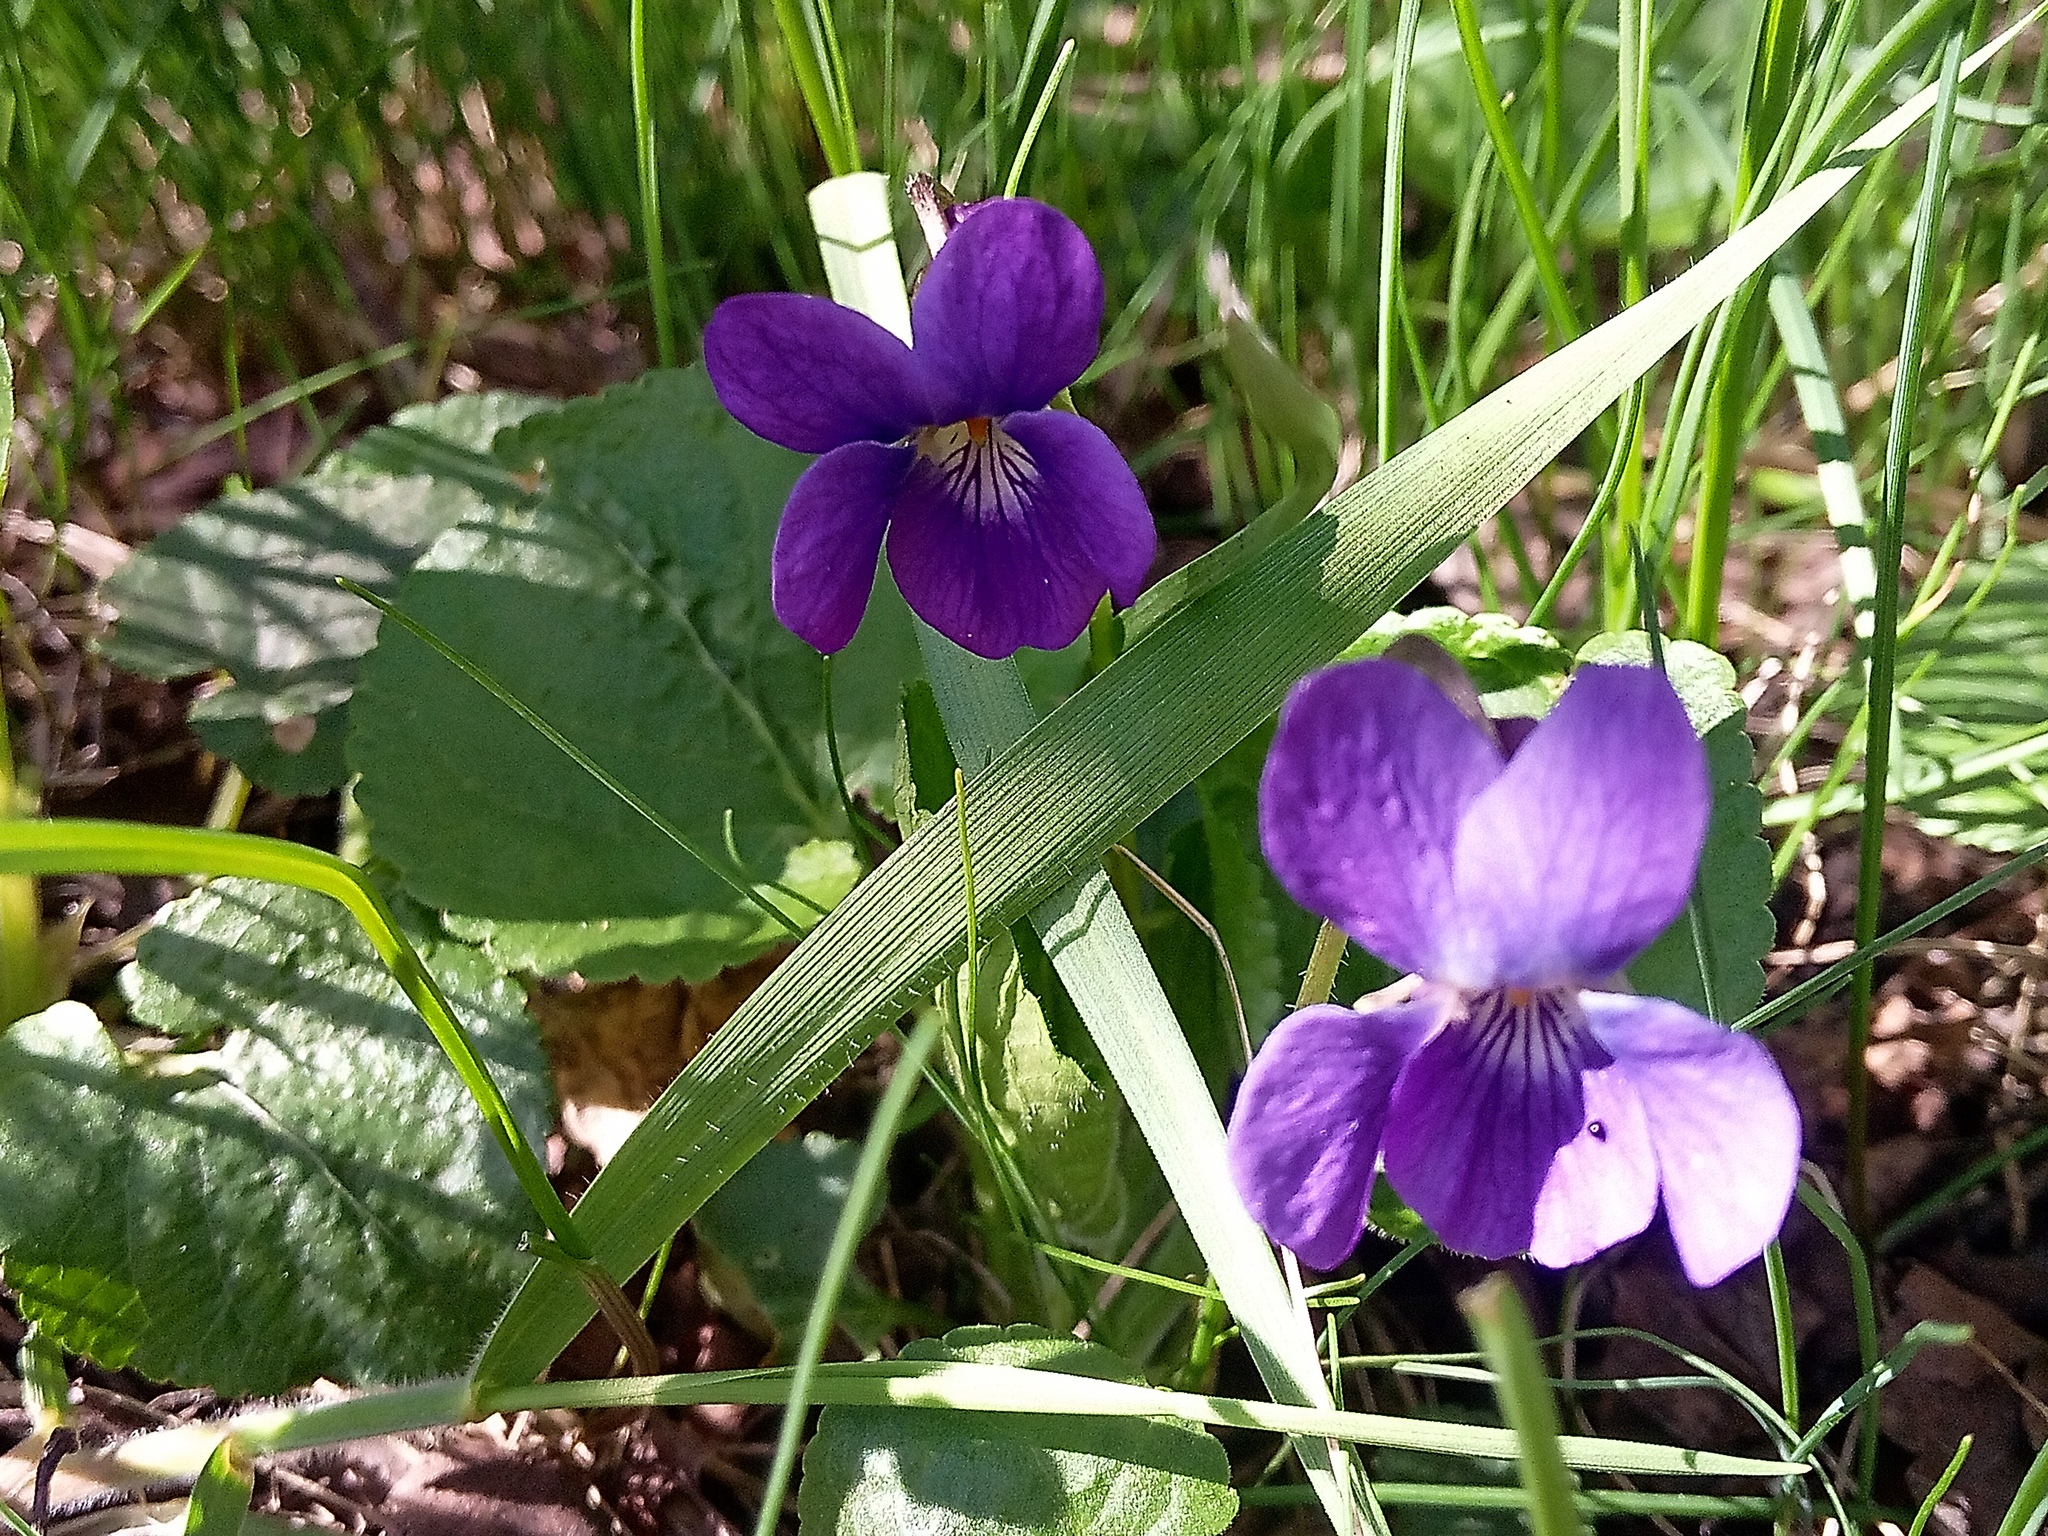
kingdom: Plantae
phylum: Tracheophyta
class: Magnoliopsida
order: Malpighiales
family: Violaceae
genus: Viola
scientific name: Viola odorata
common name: Sweet violet
